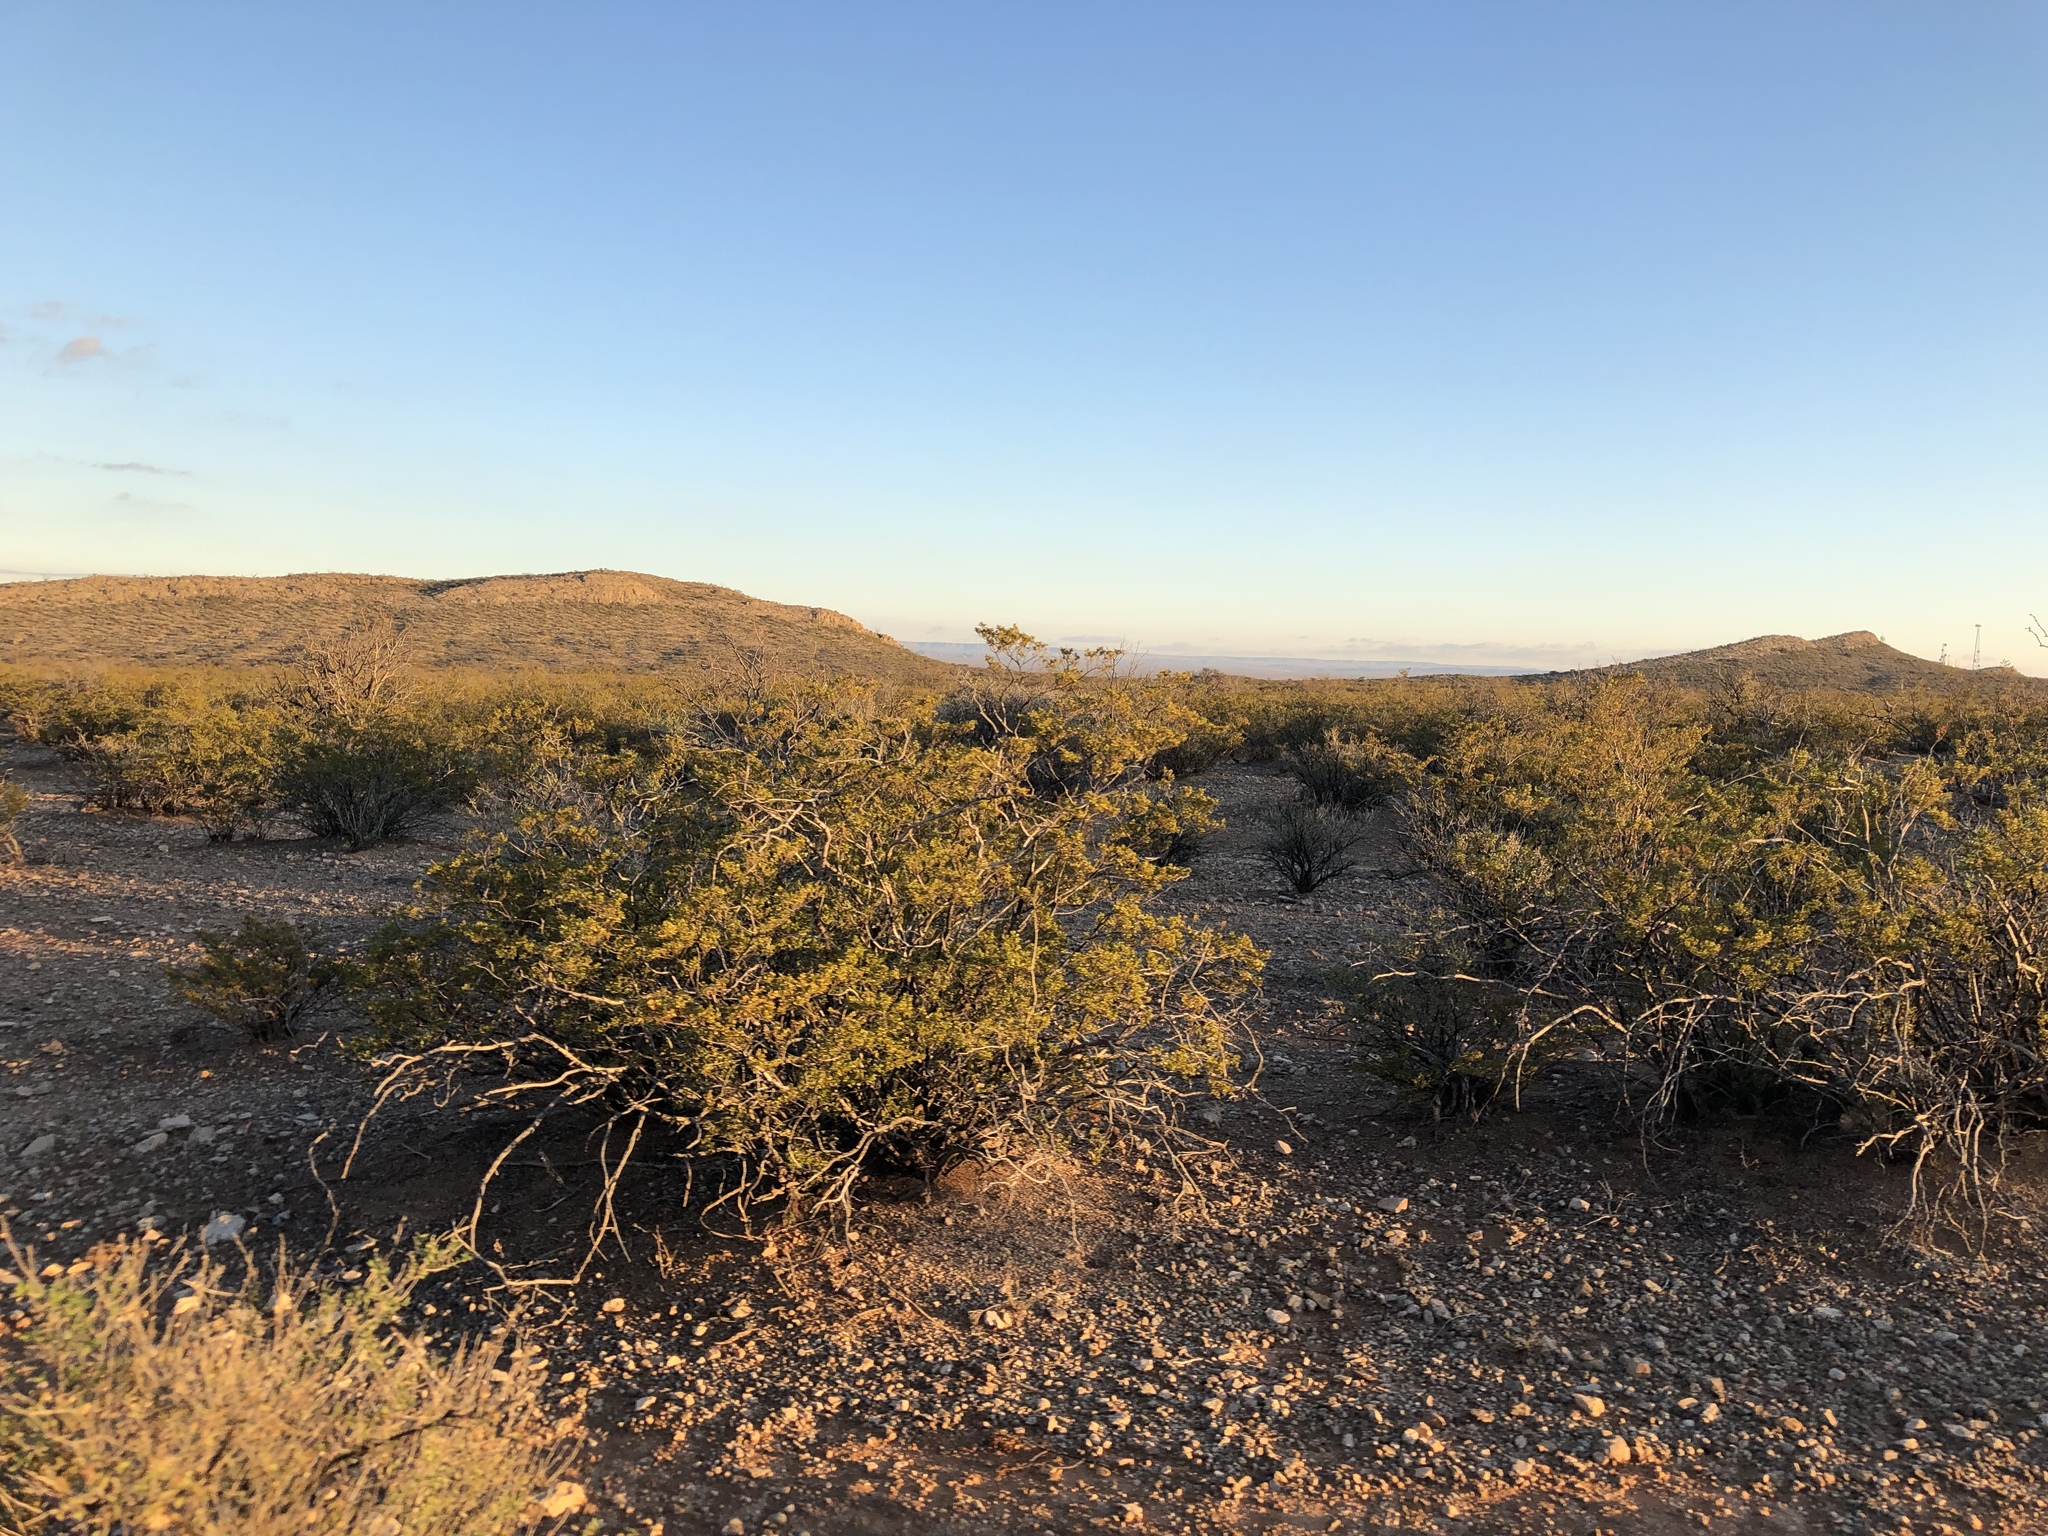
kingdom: Plantae
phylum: Tracheophyta
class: Magnoliopsida
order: Zygophyllales
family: Zygophyllaceae
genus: Larrea
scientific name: Larrea tridentata
